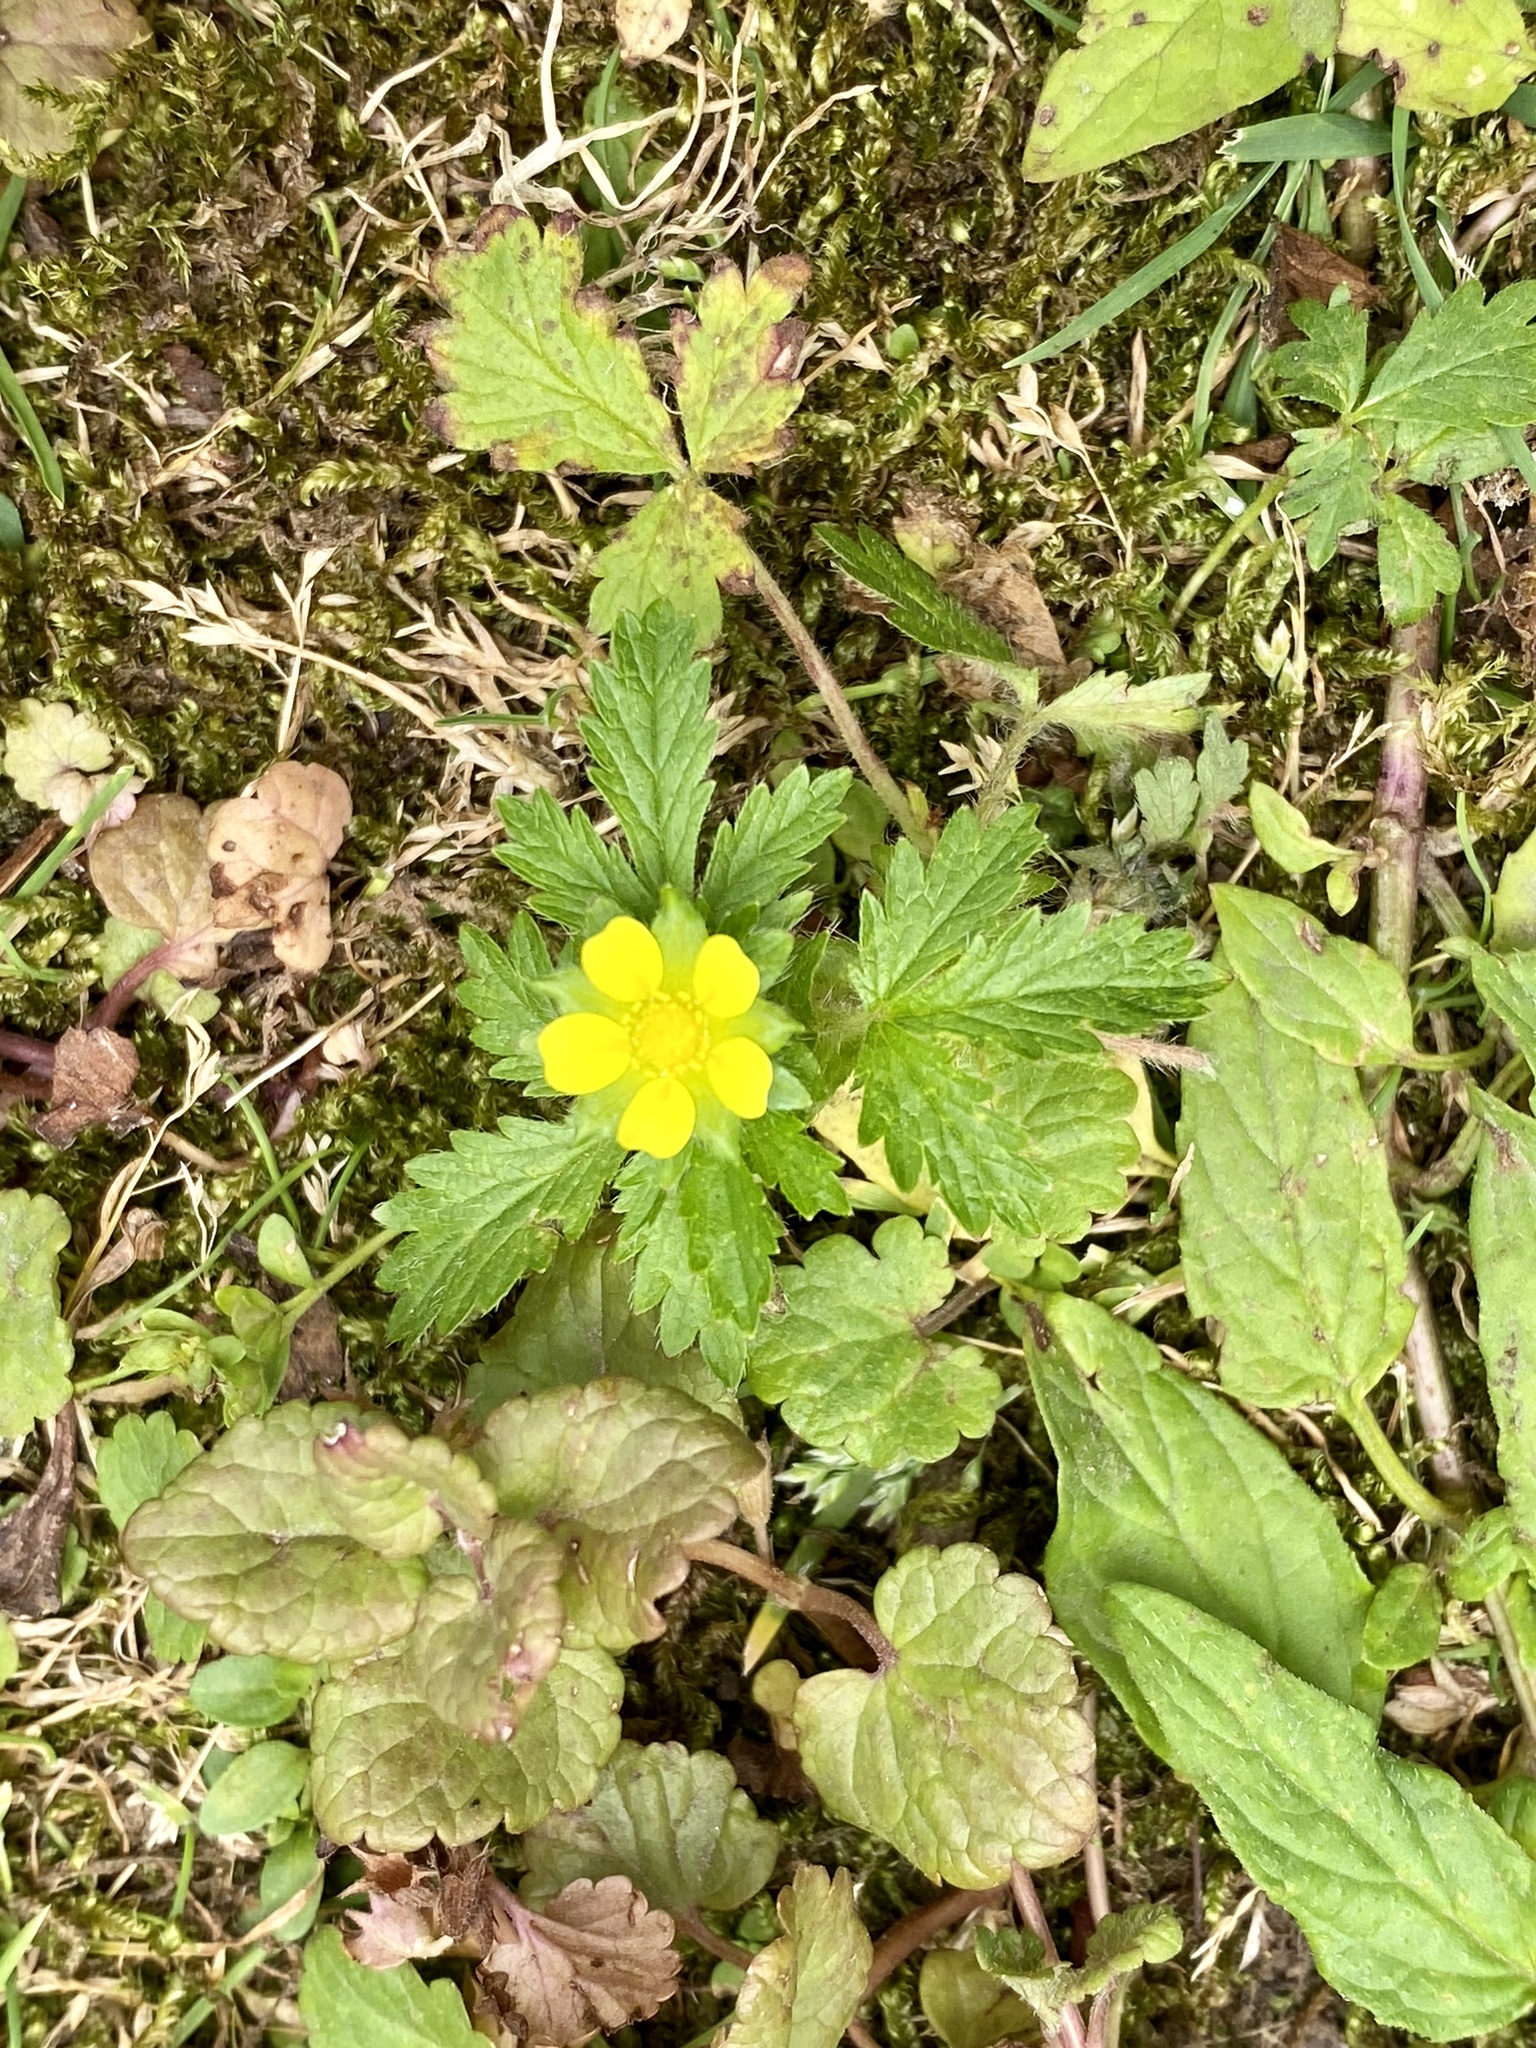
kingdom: Plantae
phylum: Tracheophyta
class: Magnoliopsida
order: Rosales
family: Rosaceae
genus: Potentilla
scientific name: Potentilla norvegica
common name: Ternate-leaved cinquefoil
